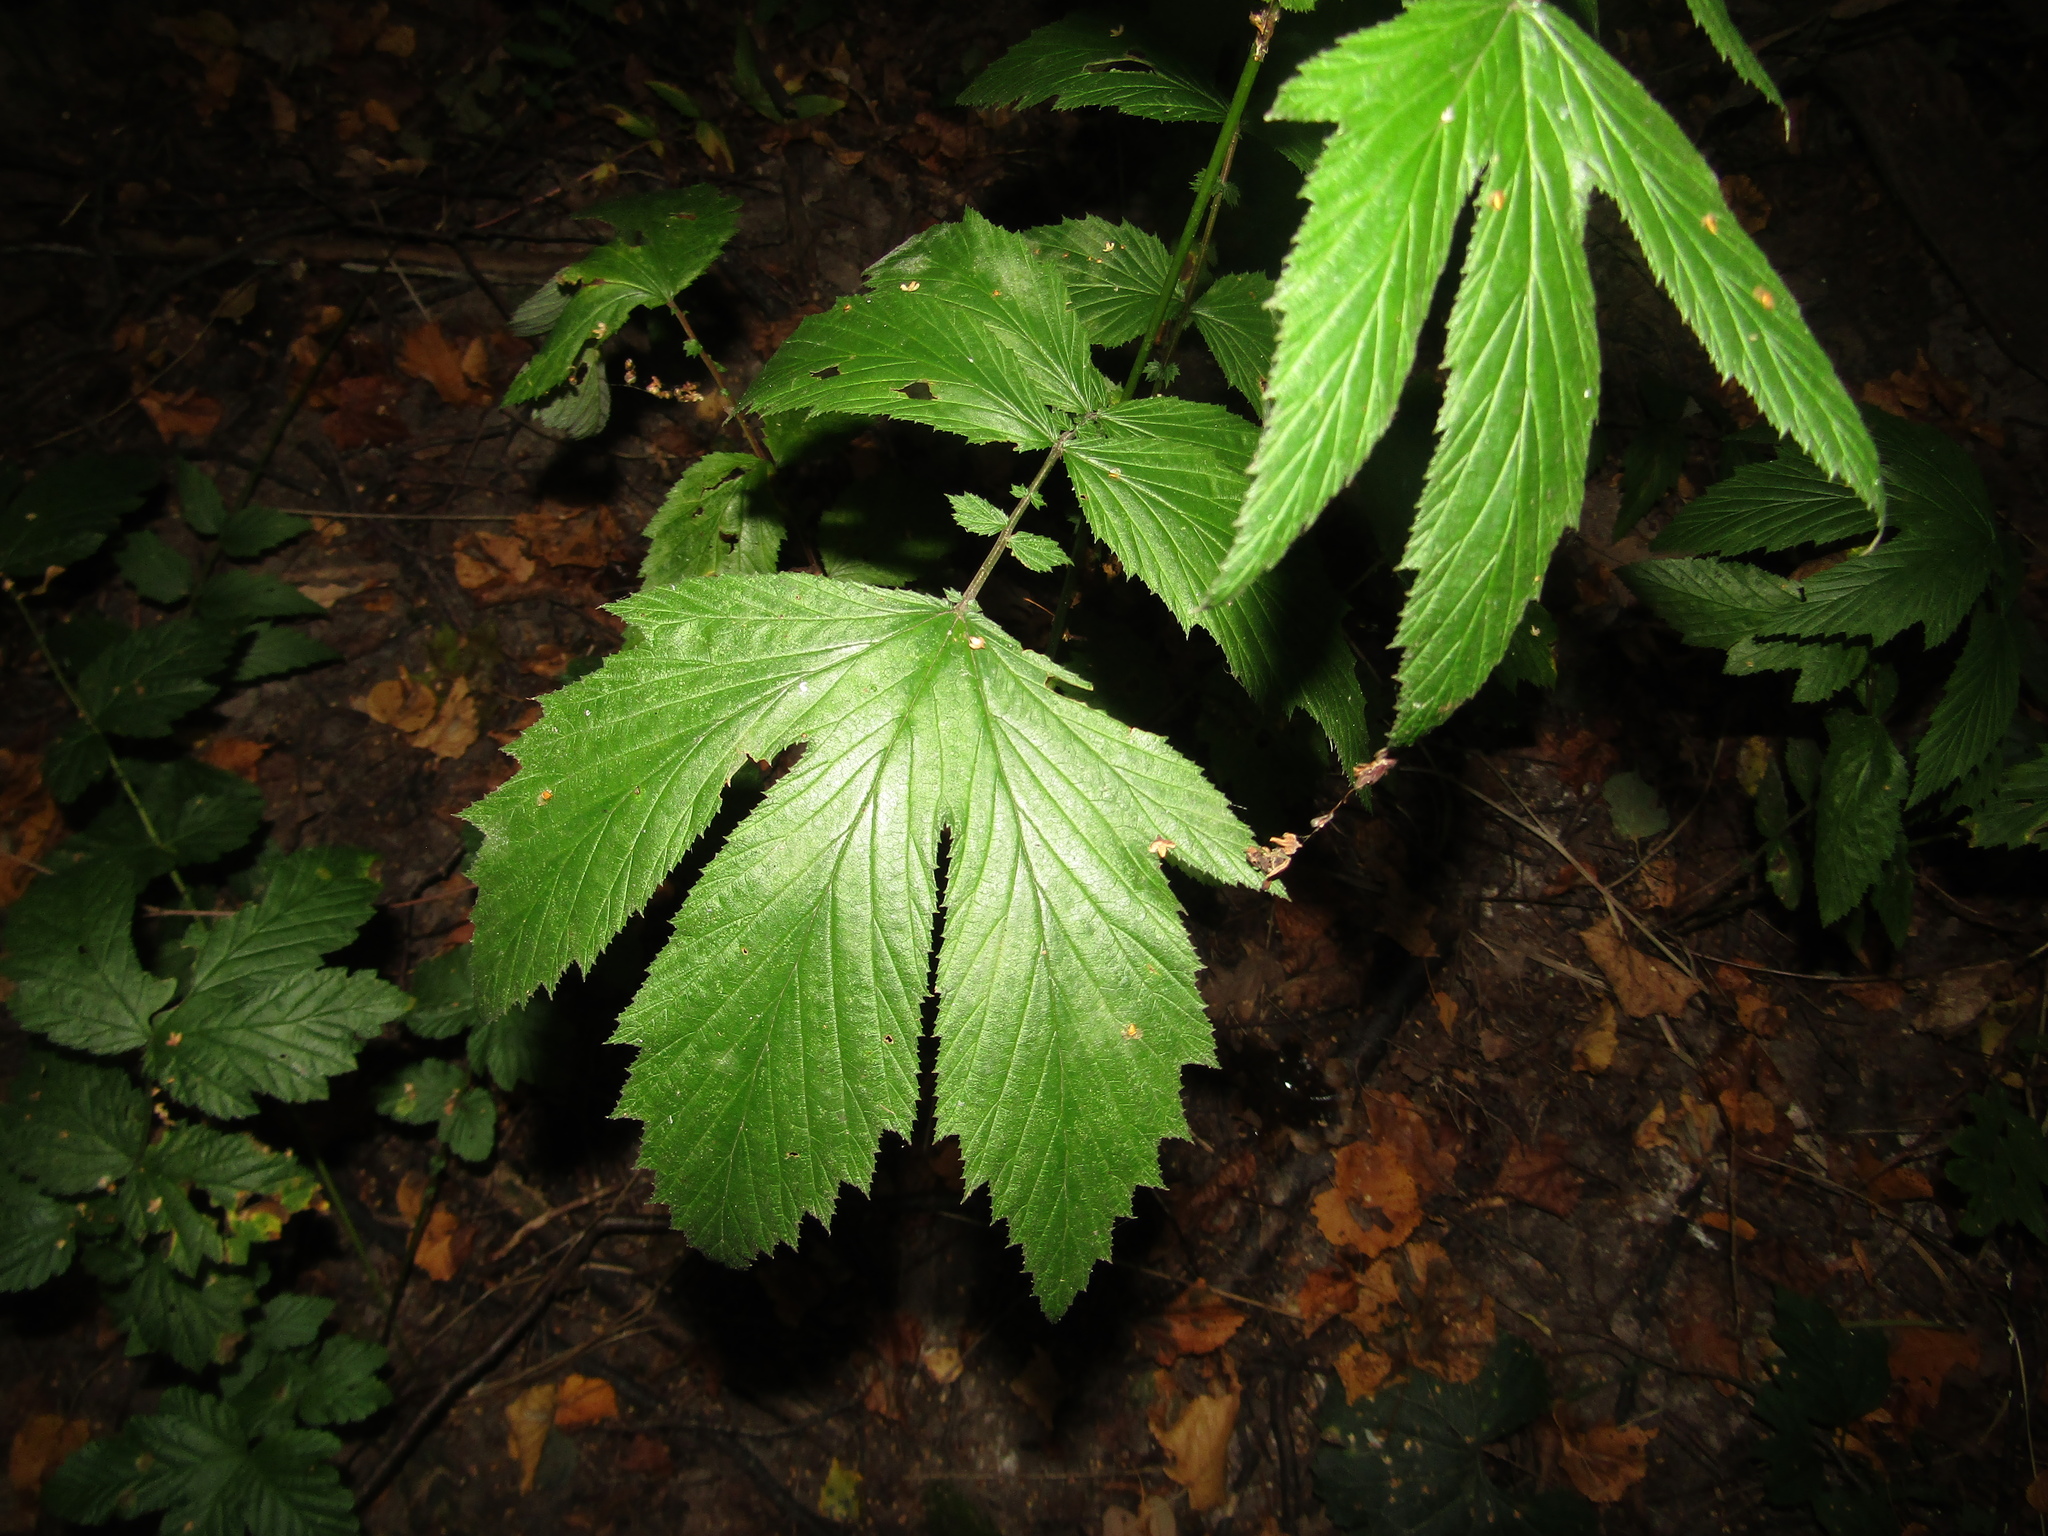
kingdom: Plantae
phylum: Tracheophyta
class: Magnoliopsida
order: Rosales
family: Rosaceae
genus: Filipendula
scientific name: Filipendula ulmaria
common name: Meadowsweet
